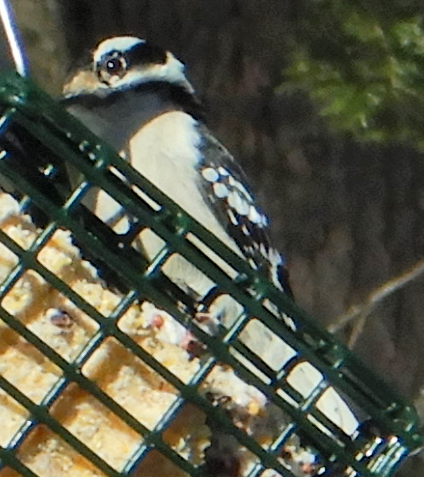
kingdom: Animalia
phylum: Chordata
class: Aves
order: Piciformes
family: Picidae
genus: Dryobates
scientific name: Dryobates pubescens
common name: Downy woodpecker
